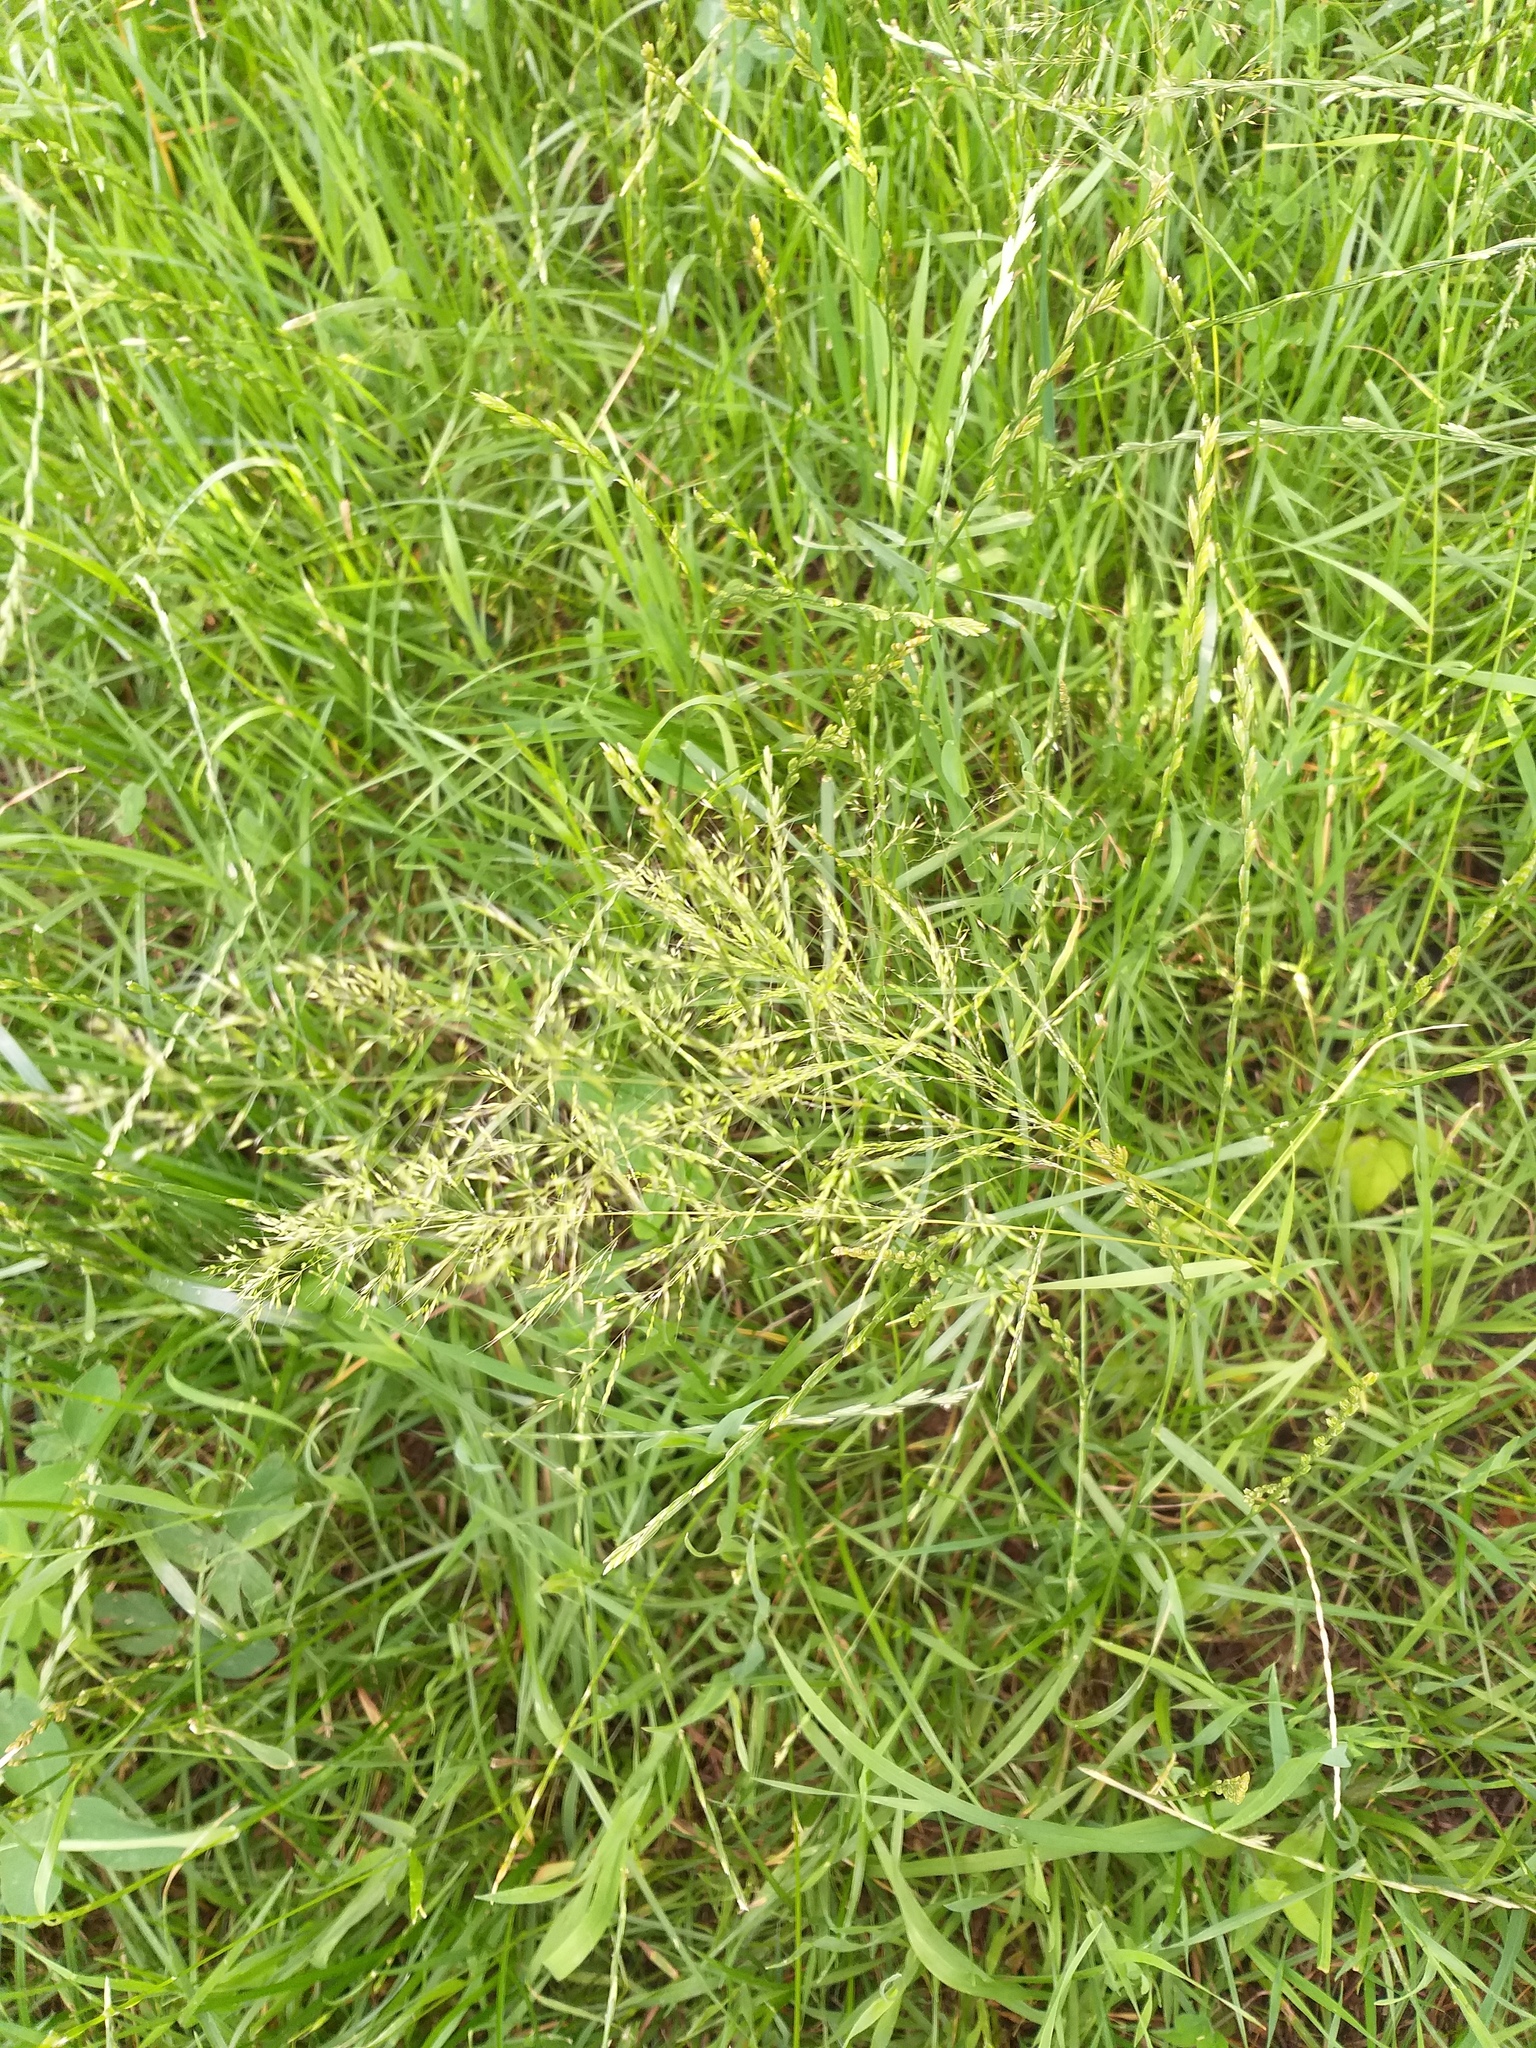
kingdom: Plantae
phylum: Tracheophyta
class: Liliopsida
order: Poales
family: Poaceae
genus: Apera
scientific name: Apera spica-venti
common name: Loose silky-bent
